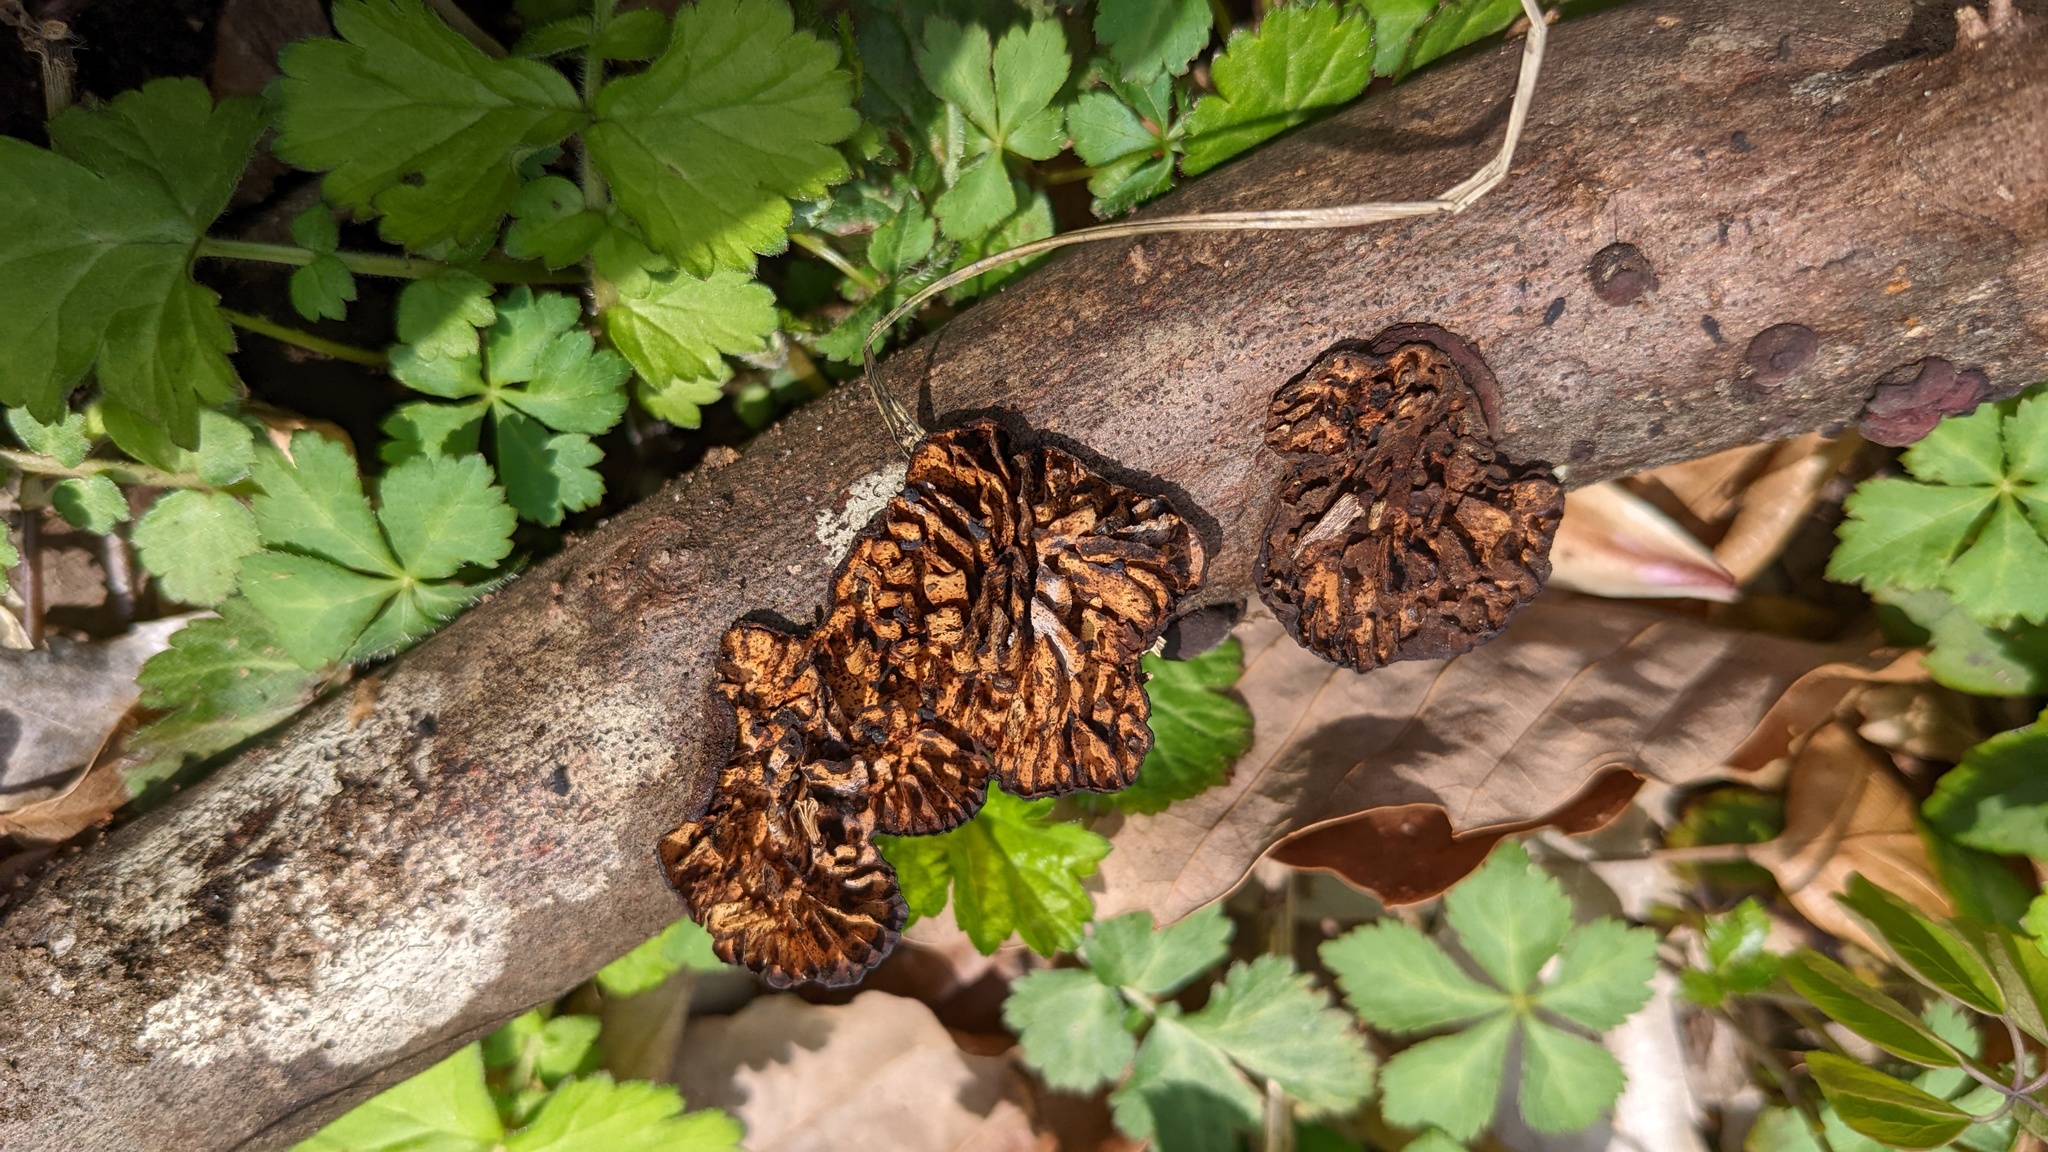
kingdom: Fungi
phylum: Basidiomycota
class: Agaricomycetes
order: Polyporales
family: Polyporaceae
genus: Lenzites
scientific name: Lenzites styracinus
